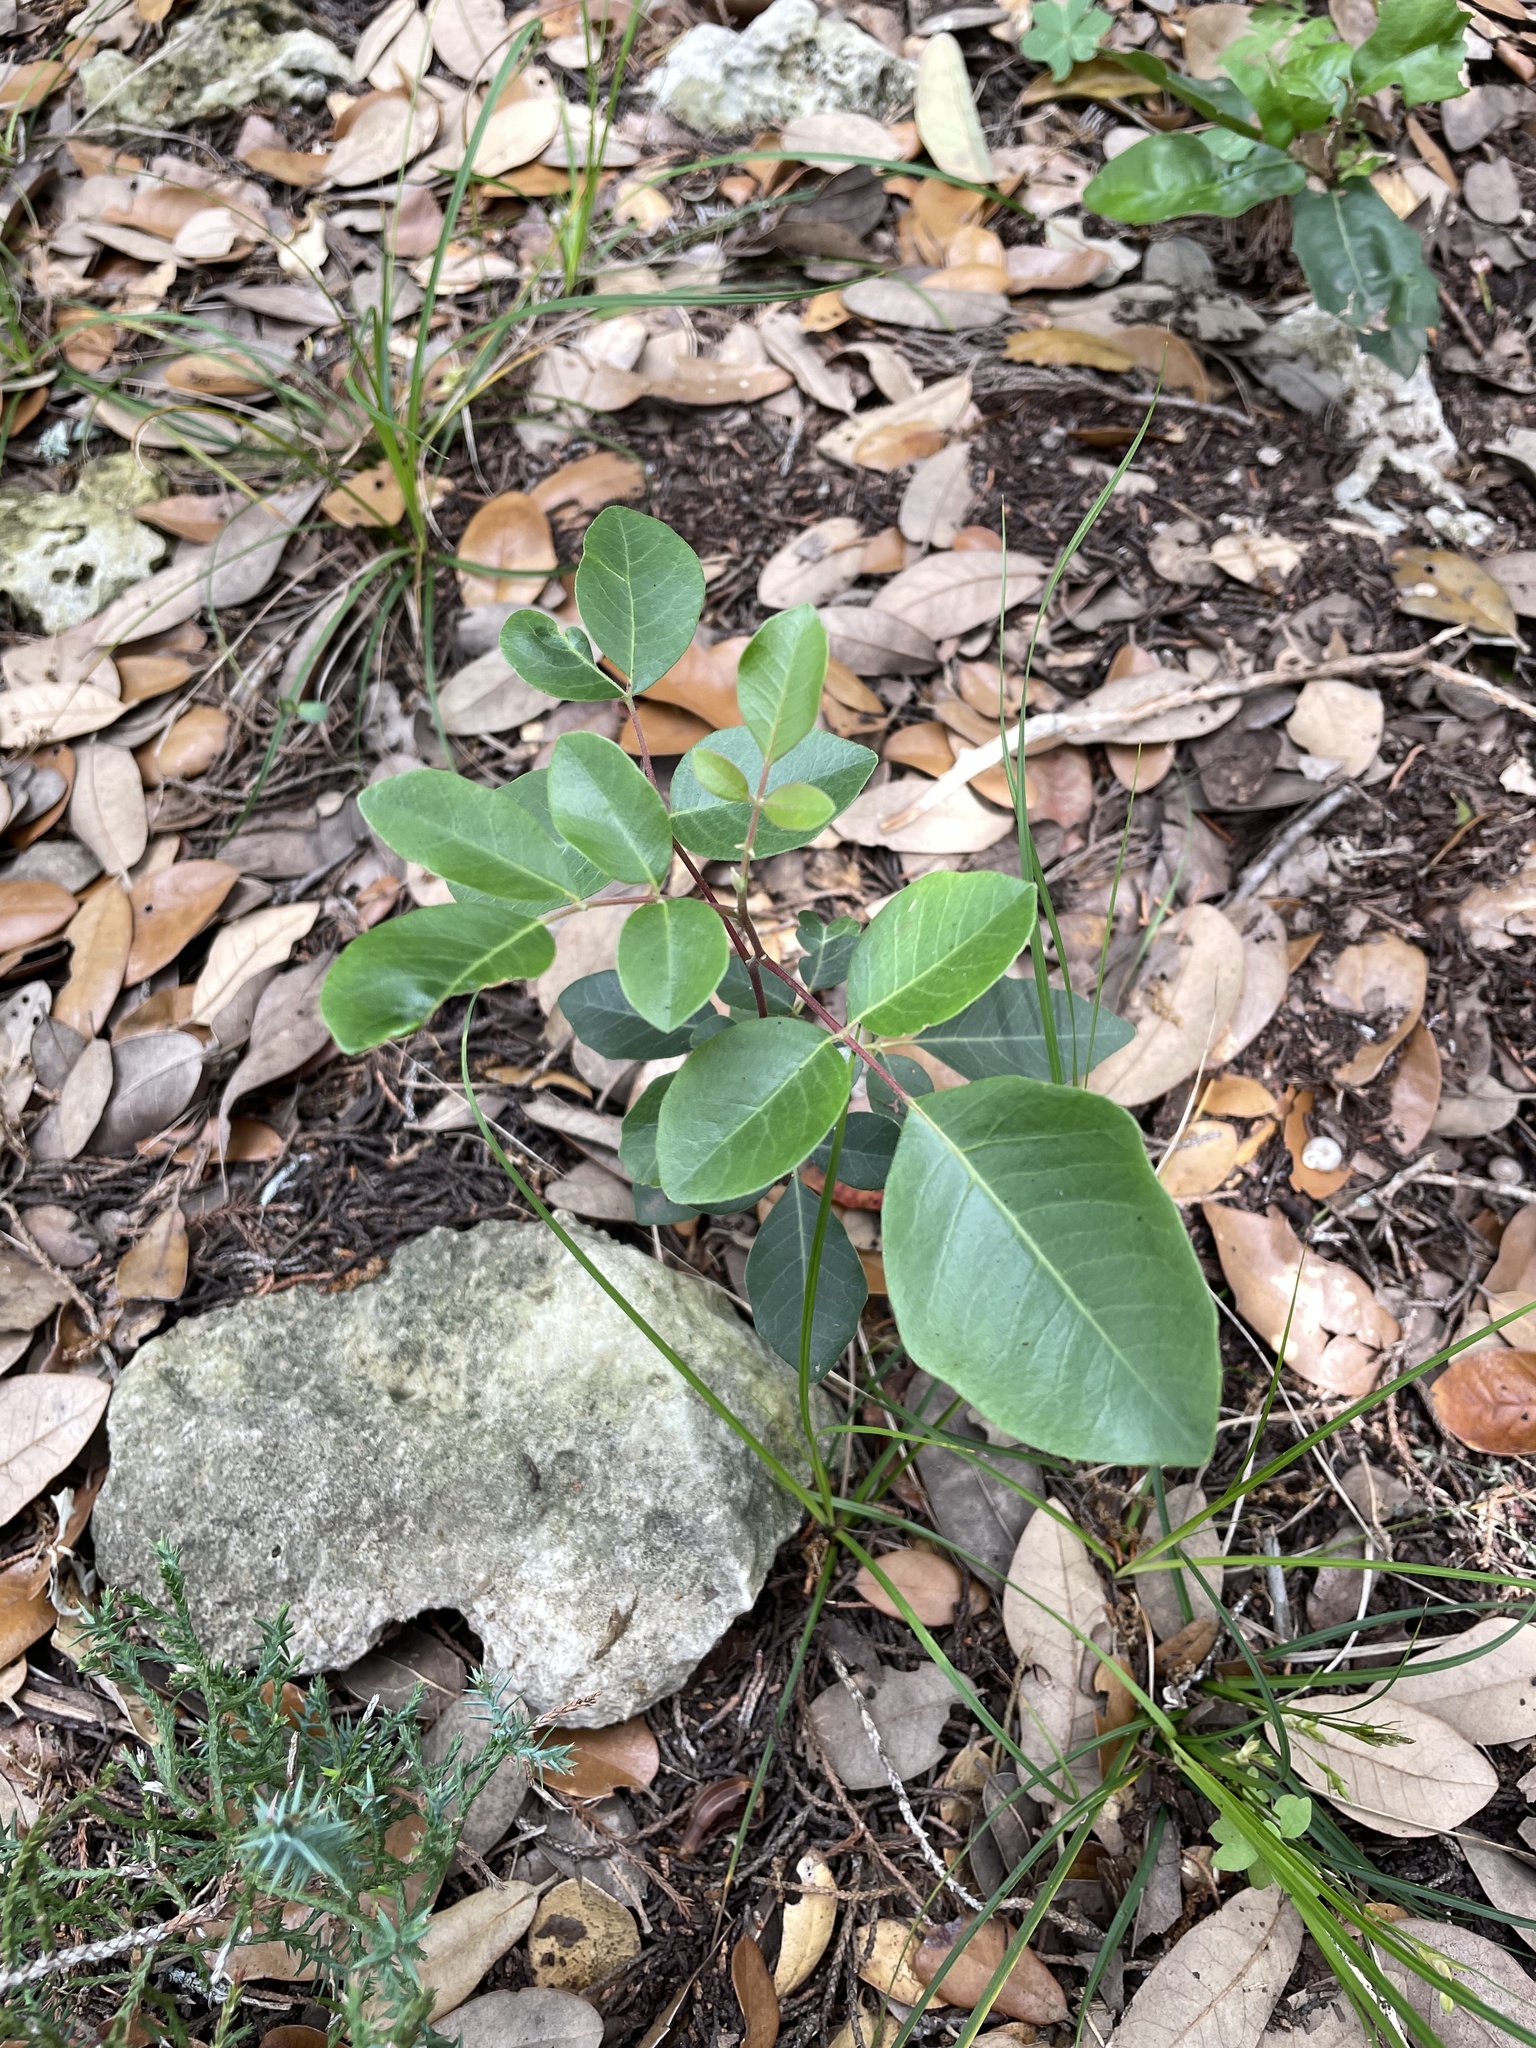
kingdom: Plantae
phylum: Tracheophyta
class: Magnoliopsida
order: Sapindales
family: Anacardiaceae
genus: Rhus
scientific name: Rhus virens
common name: Evergreen sumac
